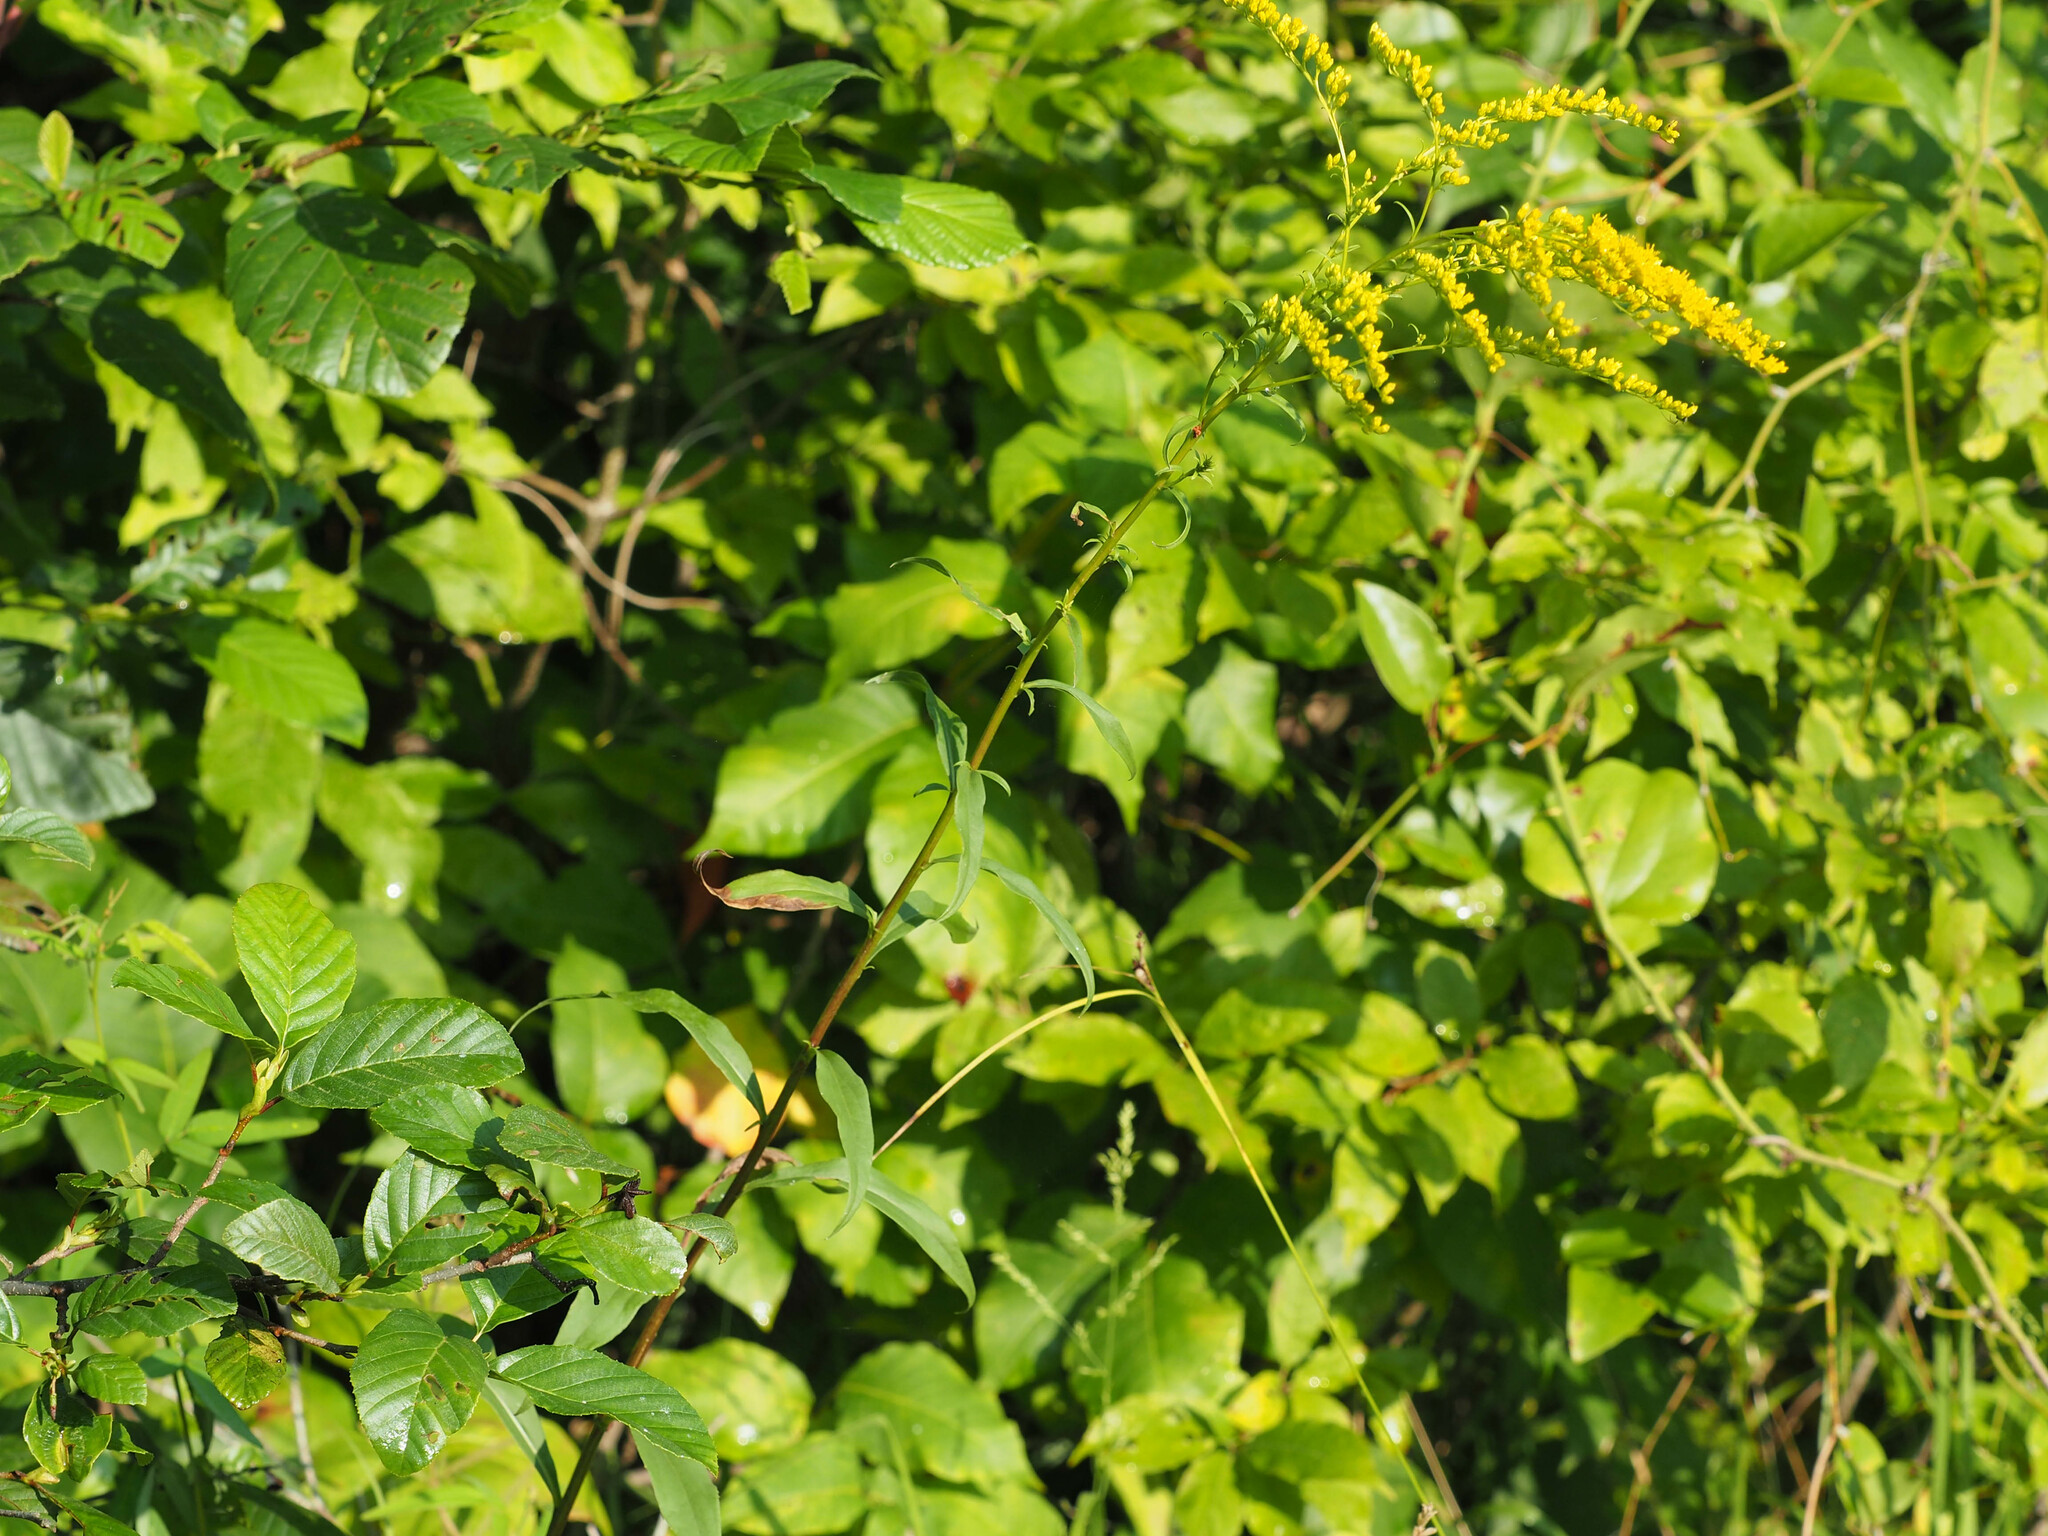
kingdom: Plantae
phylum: Tracheophyta
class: Magnoliopsida
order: Asterales
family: Asteraceae
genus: Solidago
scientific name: Solidago juncea
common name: Early goldenrod
